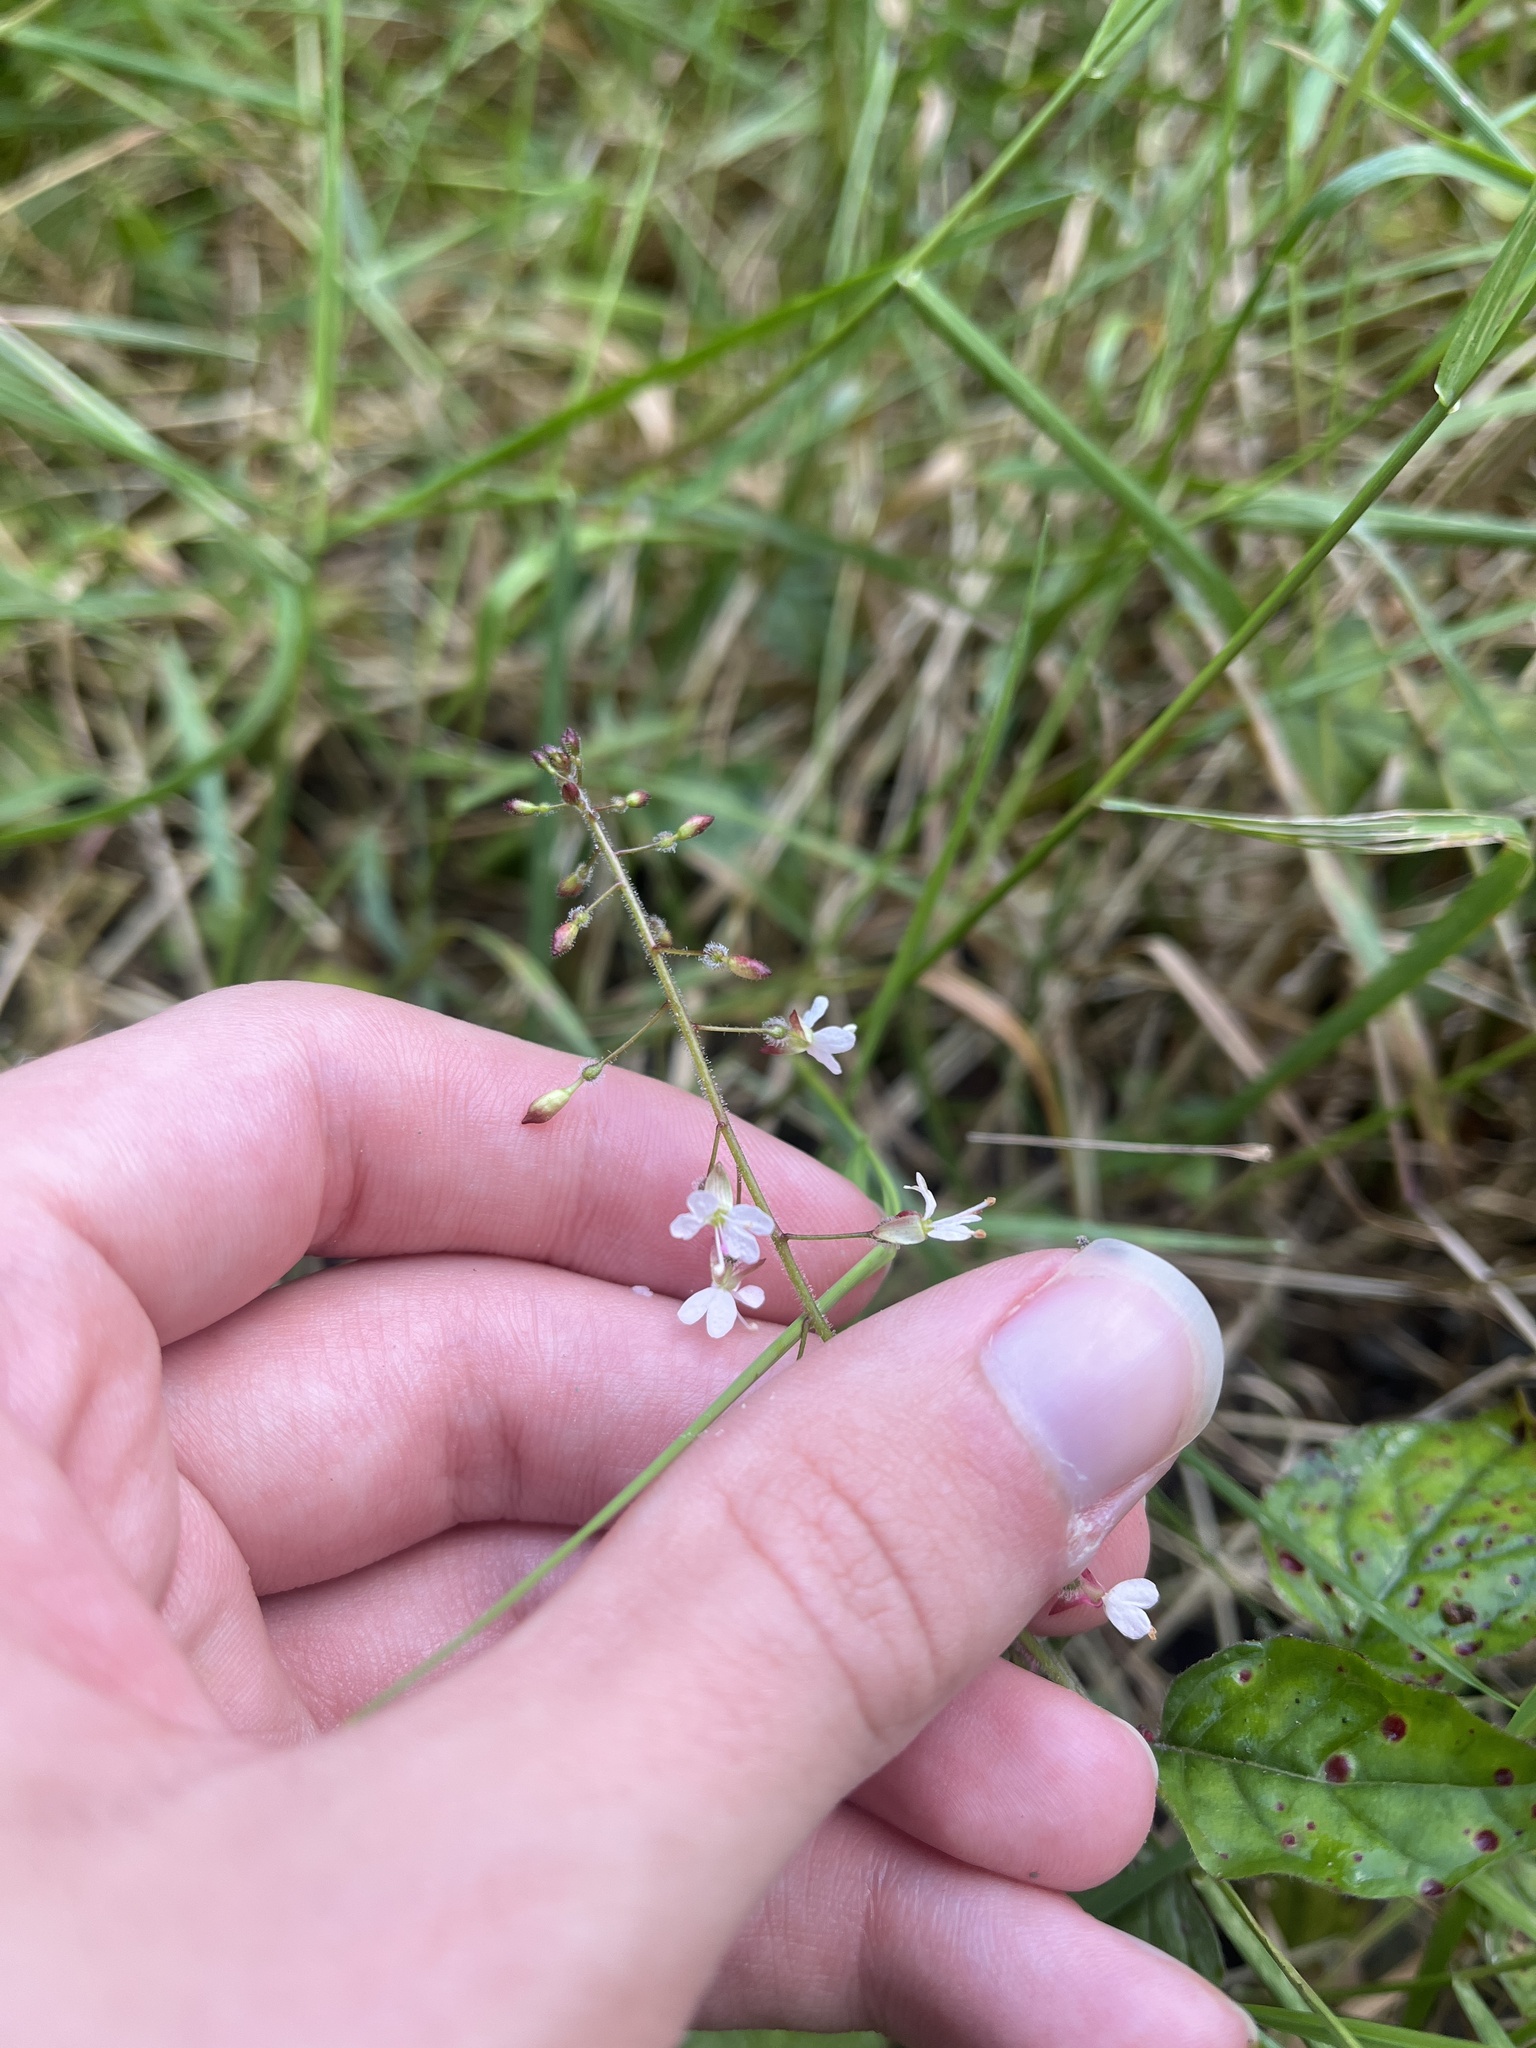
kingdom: Plantae
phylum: Tracheophyta
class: Magnoliopsida
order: Myrtales
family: Onagraceae
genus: Circaea
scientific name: Circaea lutetiana
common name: Enchanter's-nightshade
